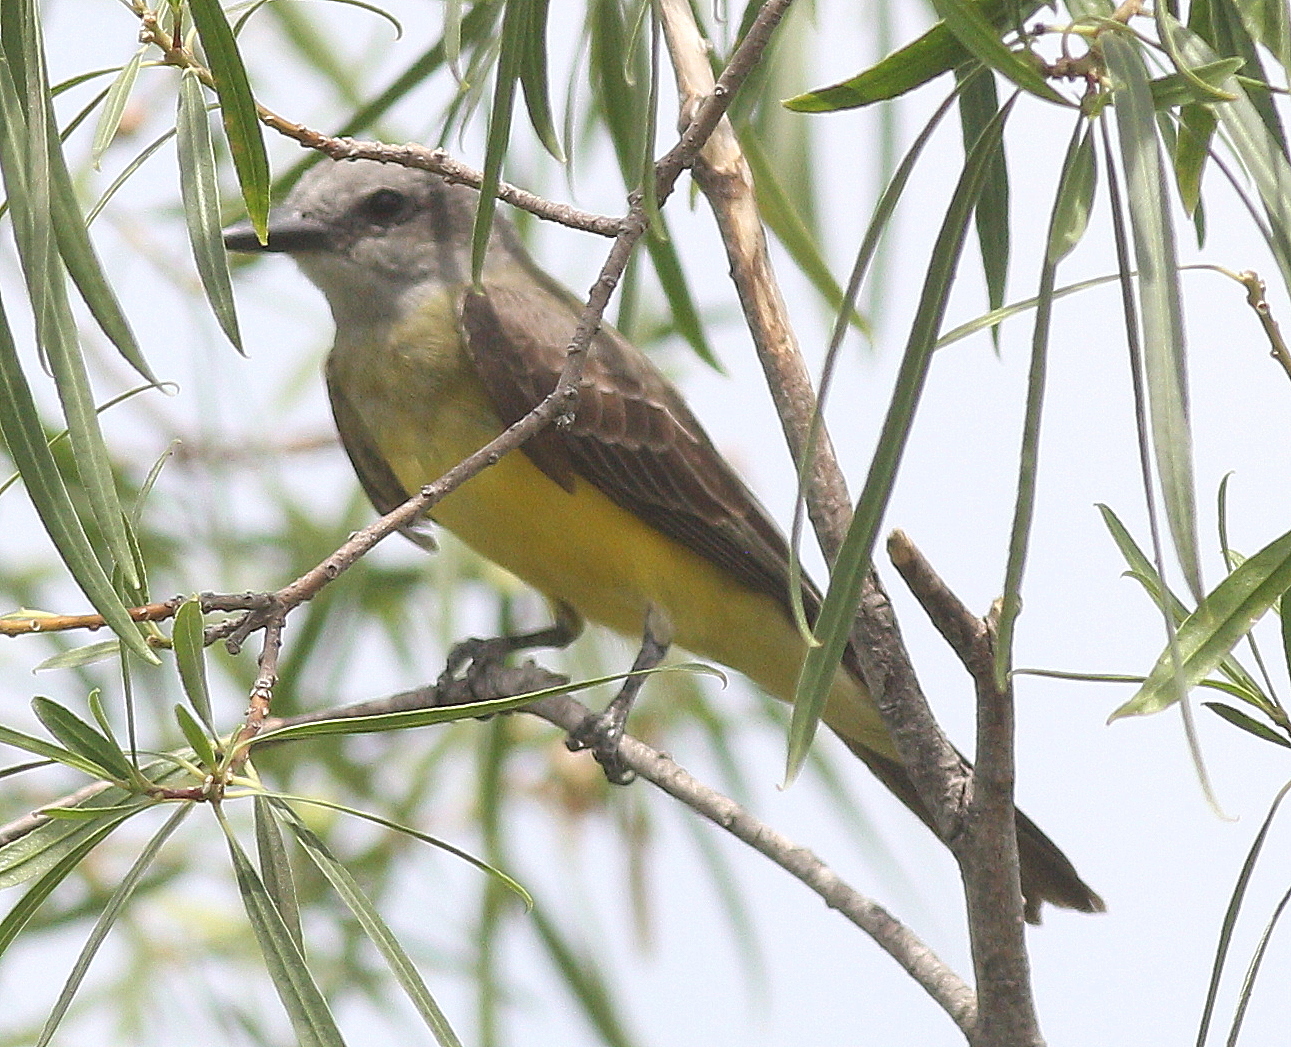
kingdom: Animalia
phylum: Chordata
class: Aves
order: Passeriformes
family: Tyrannidae
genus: Tyrannus
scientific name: Tyrannus melancholicus
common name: Tropical kingbird
